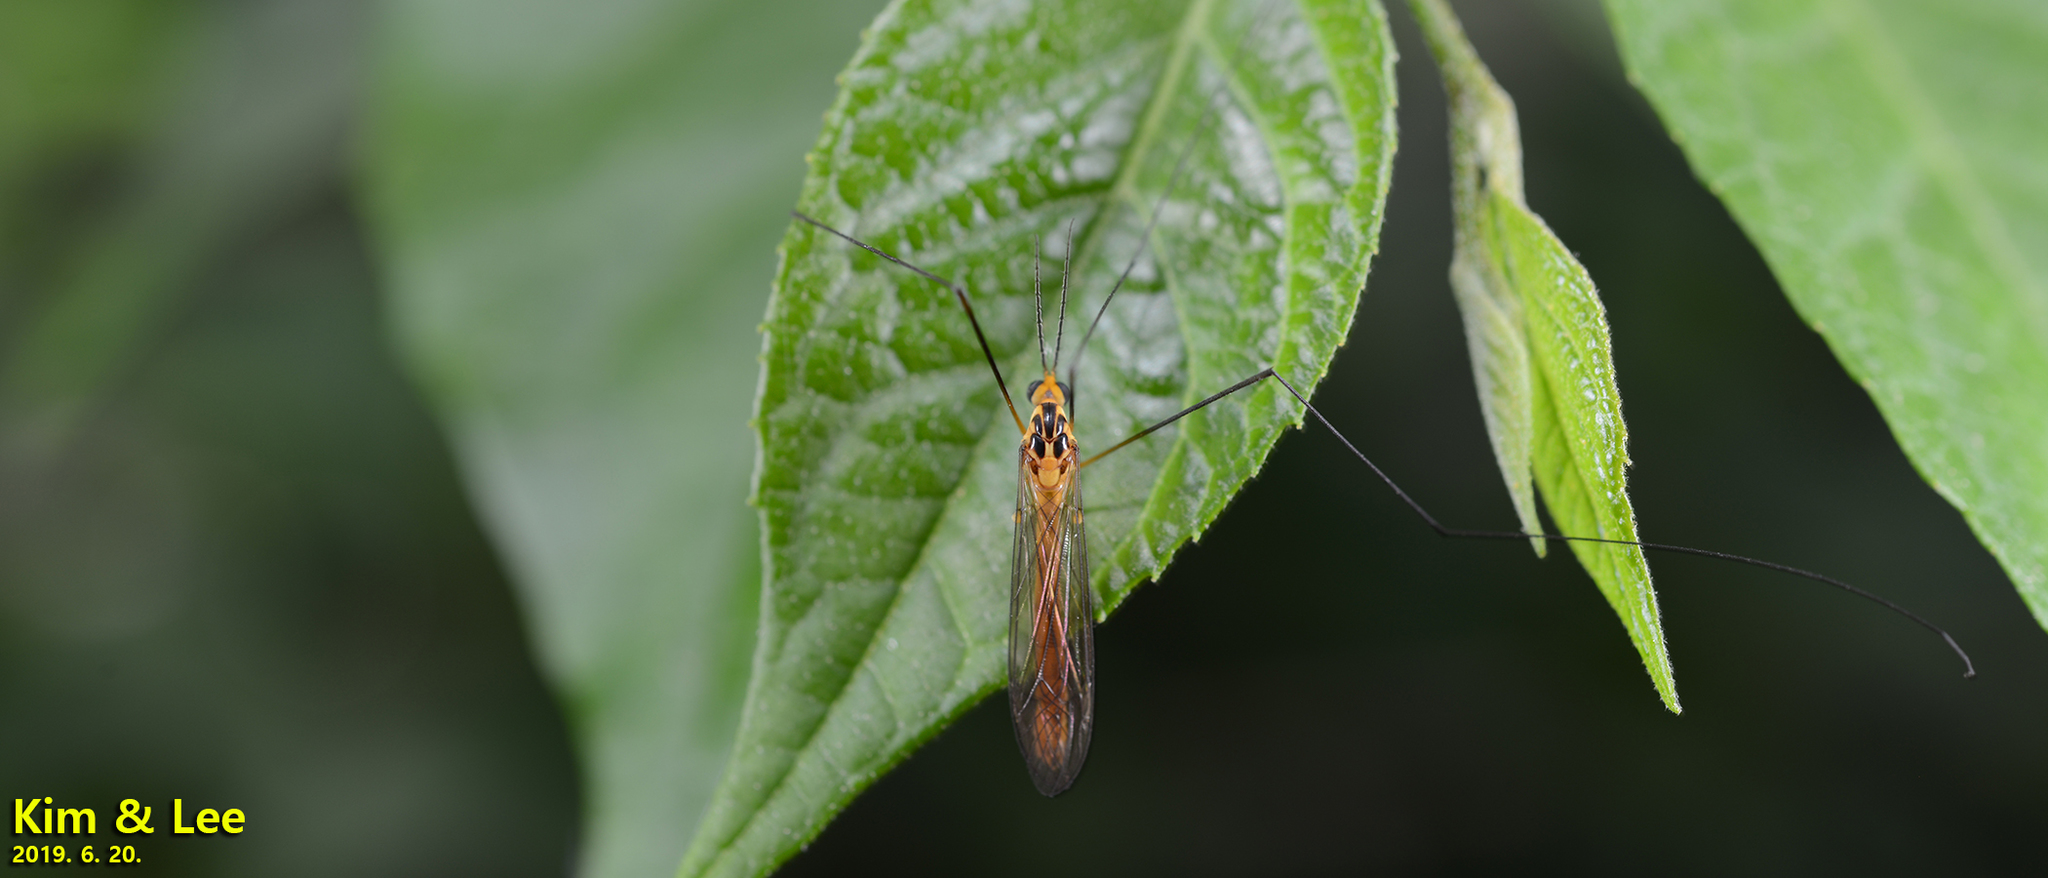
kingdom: Animalia
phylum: Arthropoda
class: Insecta
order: Diptera
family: Tipulidae
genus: Nephrotoma
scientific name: Nephrotoma virgata
